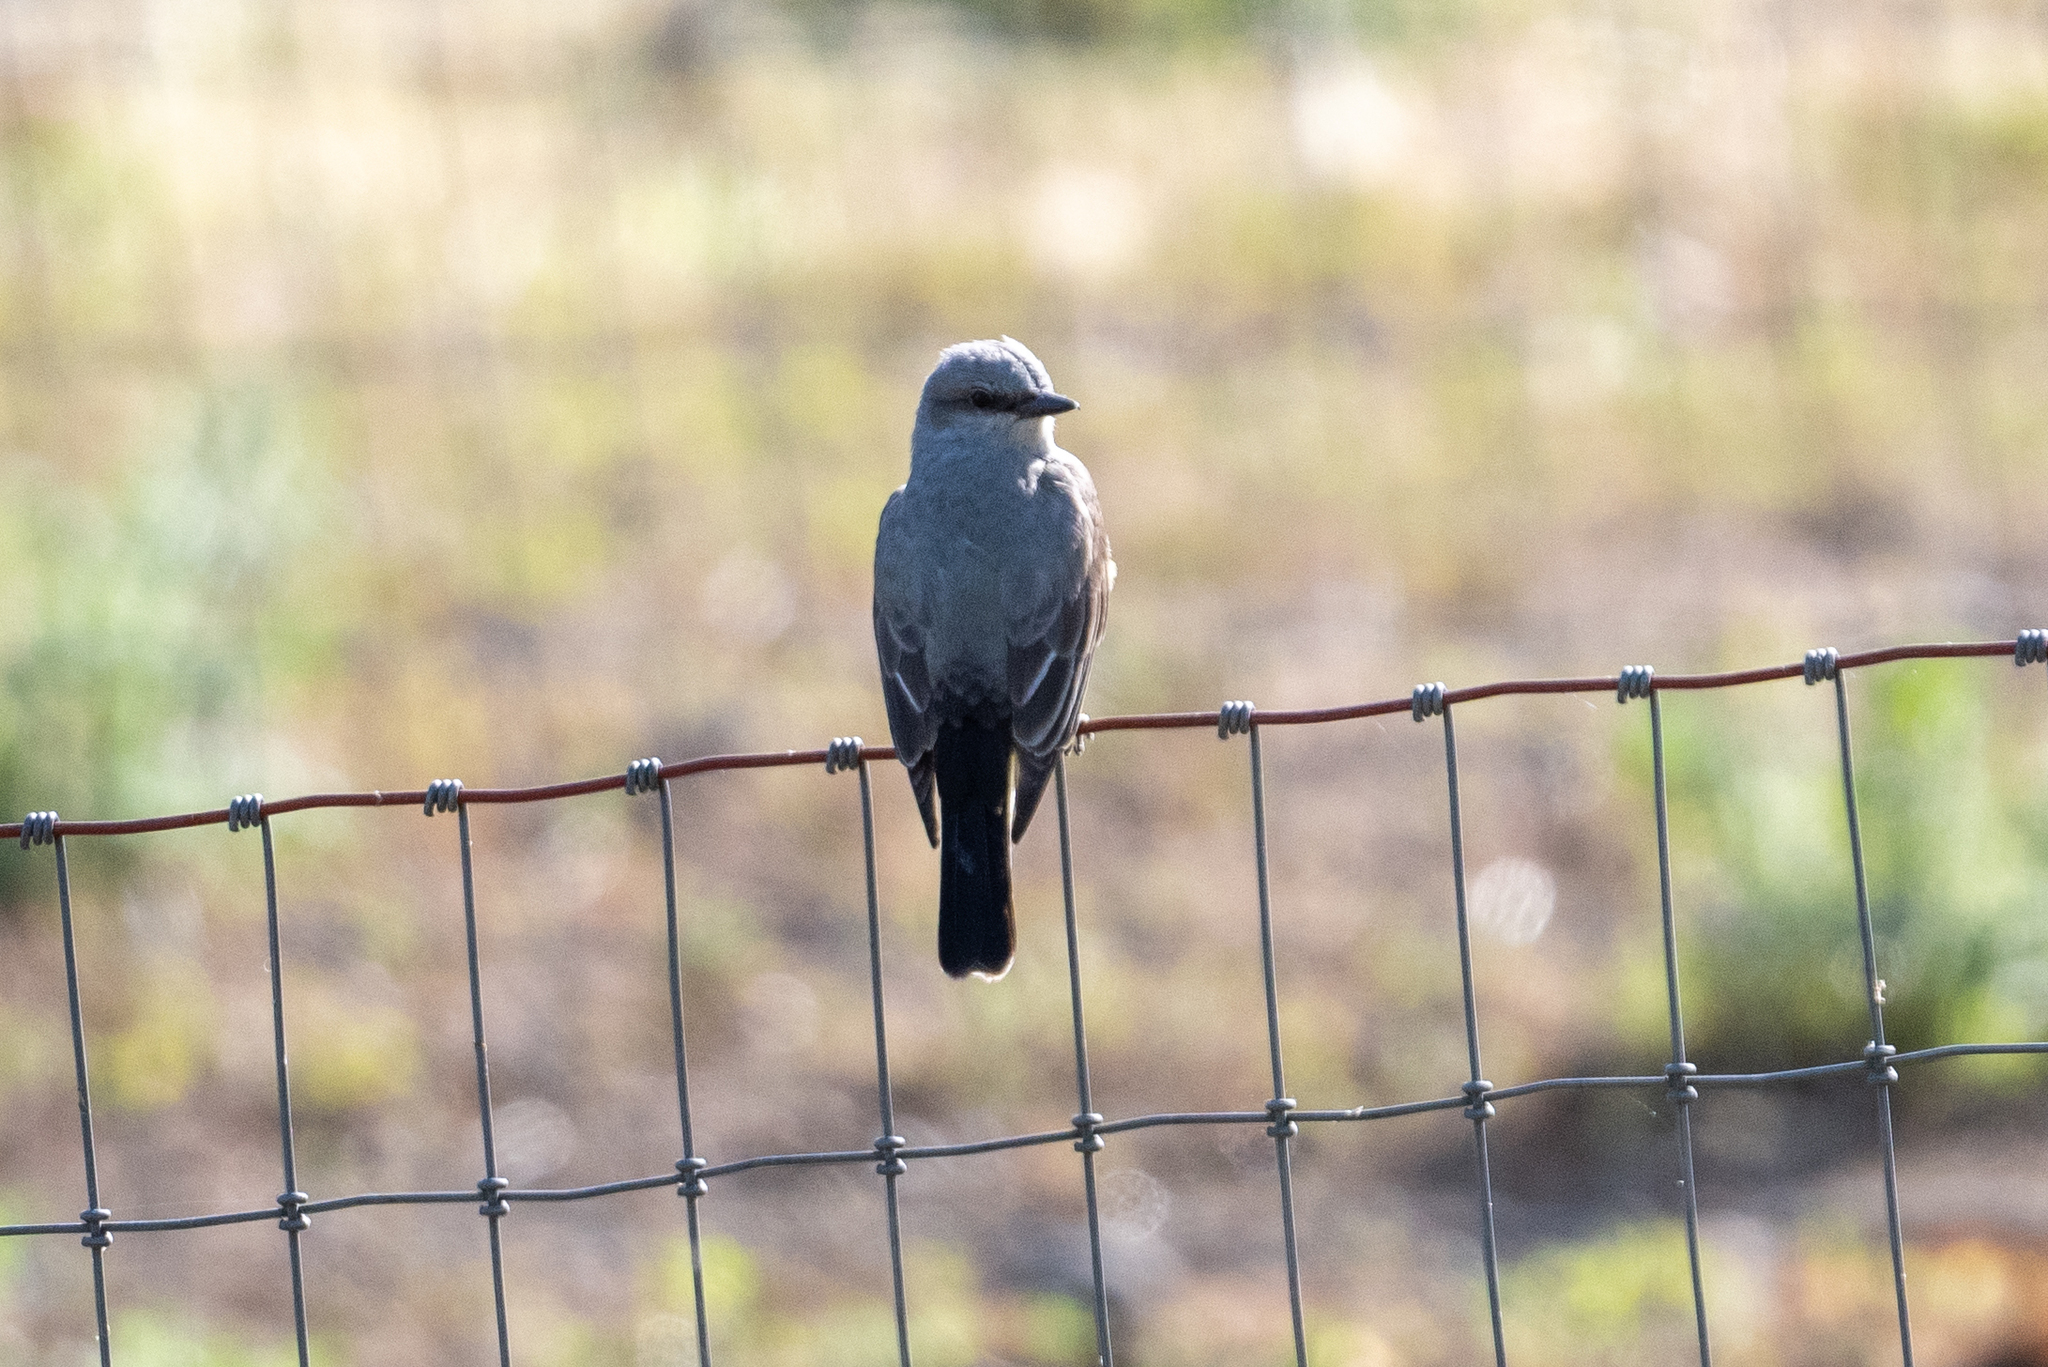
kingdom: Animalia
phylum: Chordata
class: Aves
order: Passeriformes
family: Tyrannidae
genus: Tyrannus
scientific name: Tyrannus verticalis
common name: Western kingbird
